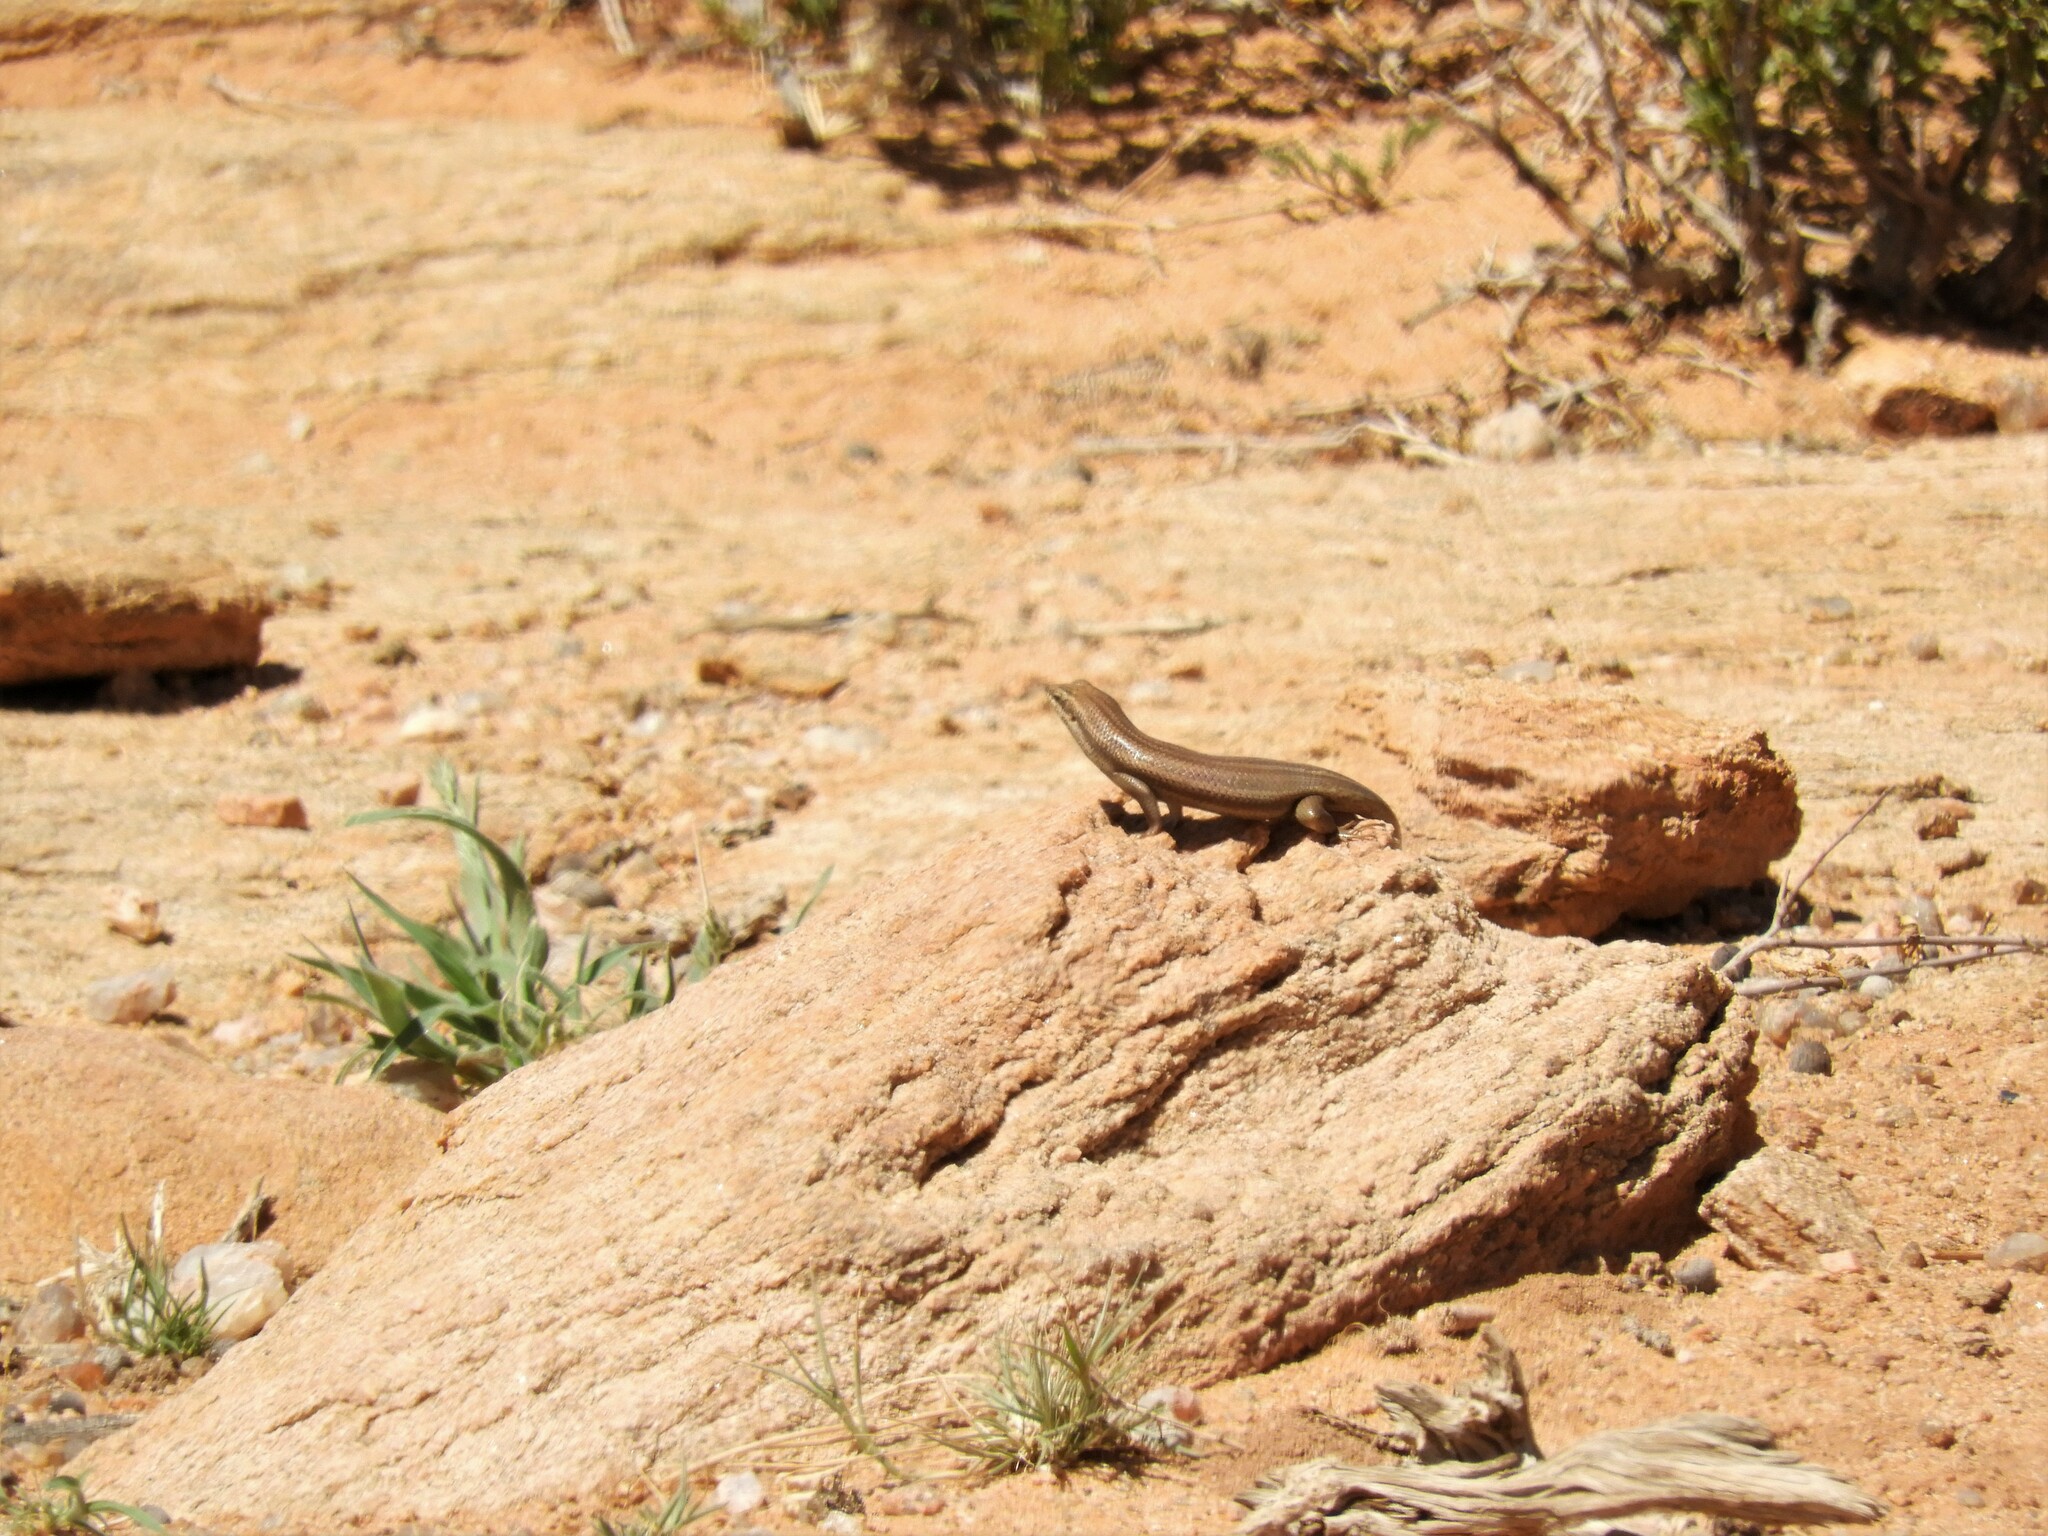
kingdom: Animalia
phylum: Chordata
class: Squamata
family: Scincidae
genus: Trachylepis
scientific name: Trachylepis sulcata
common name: Western rock skink
